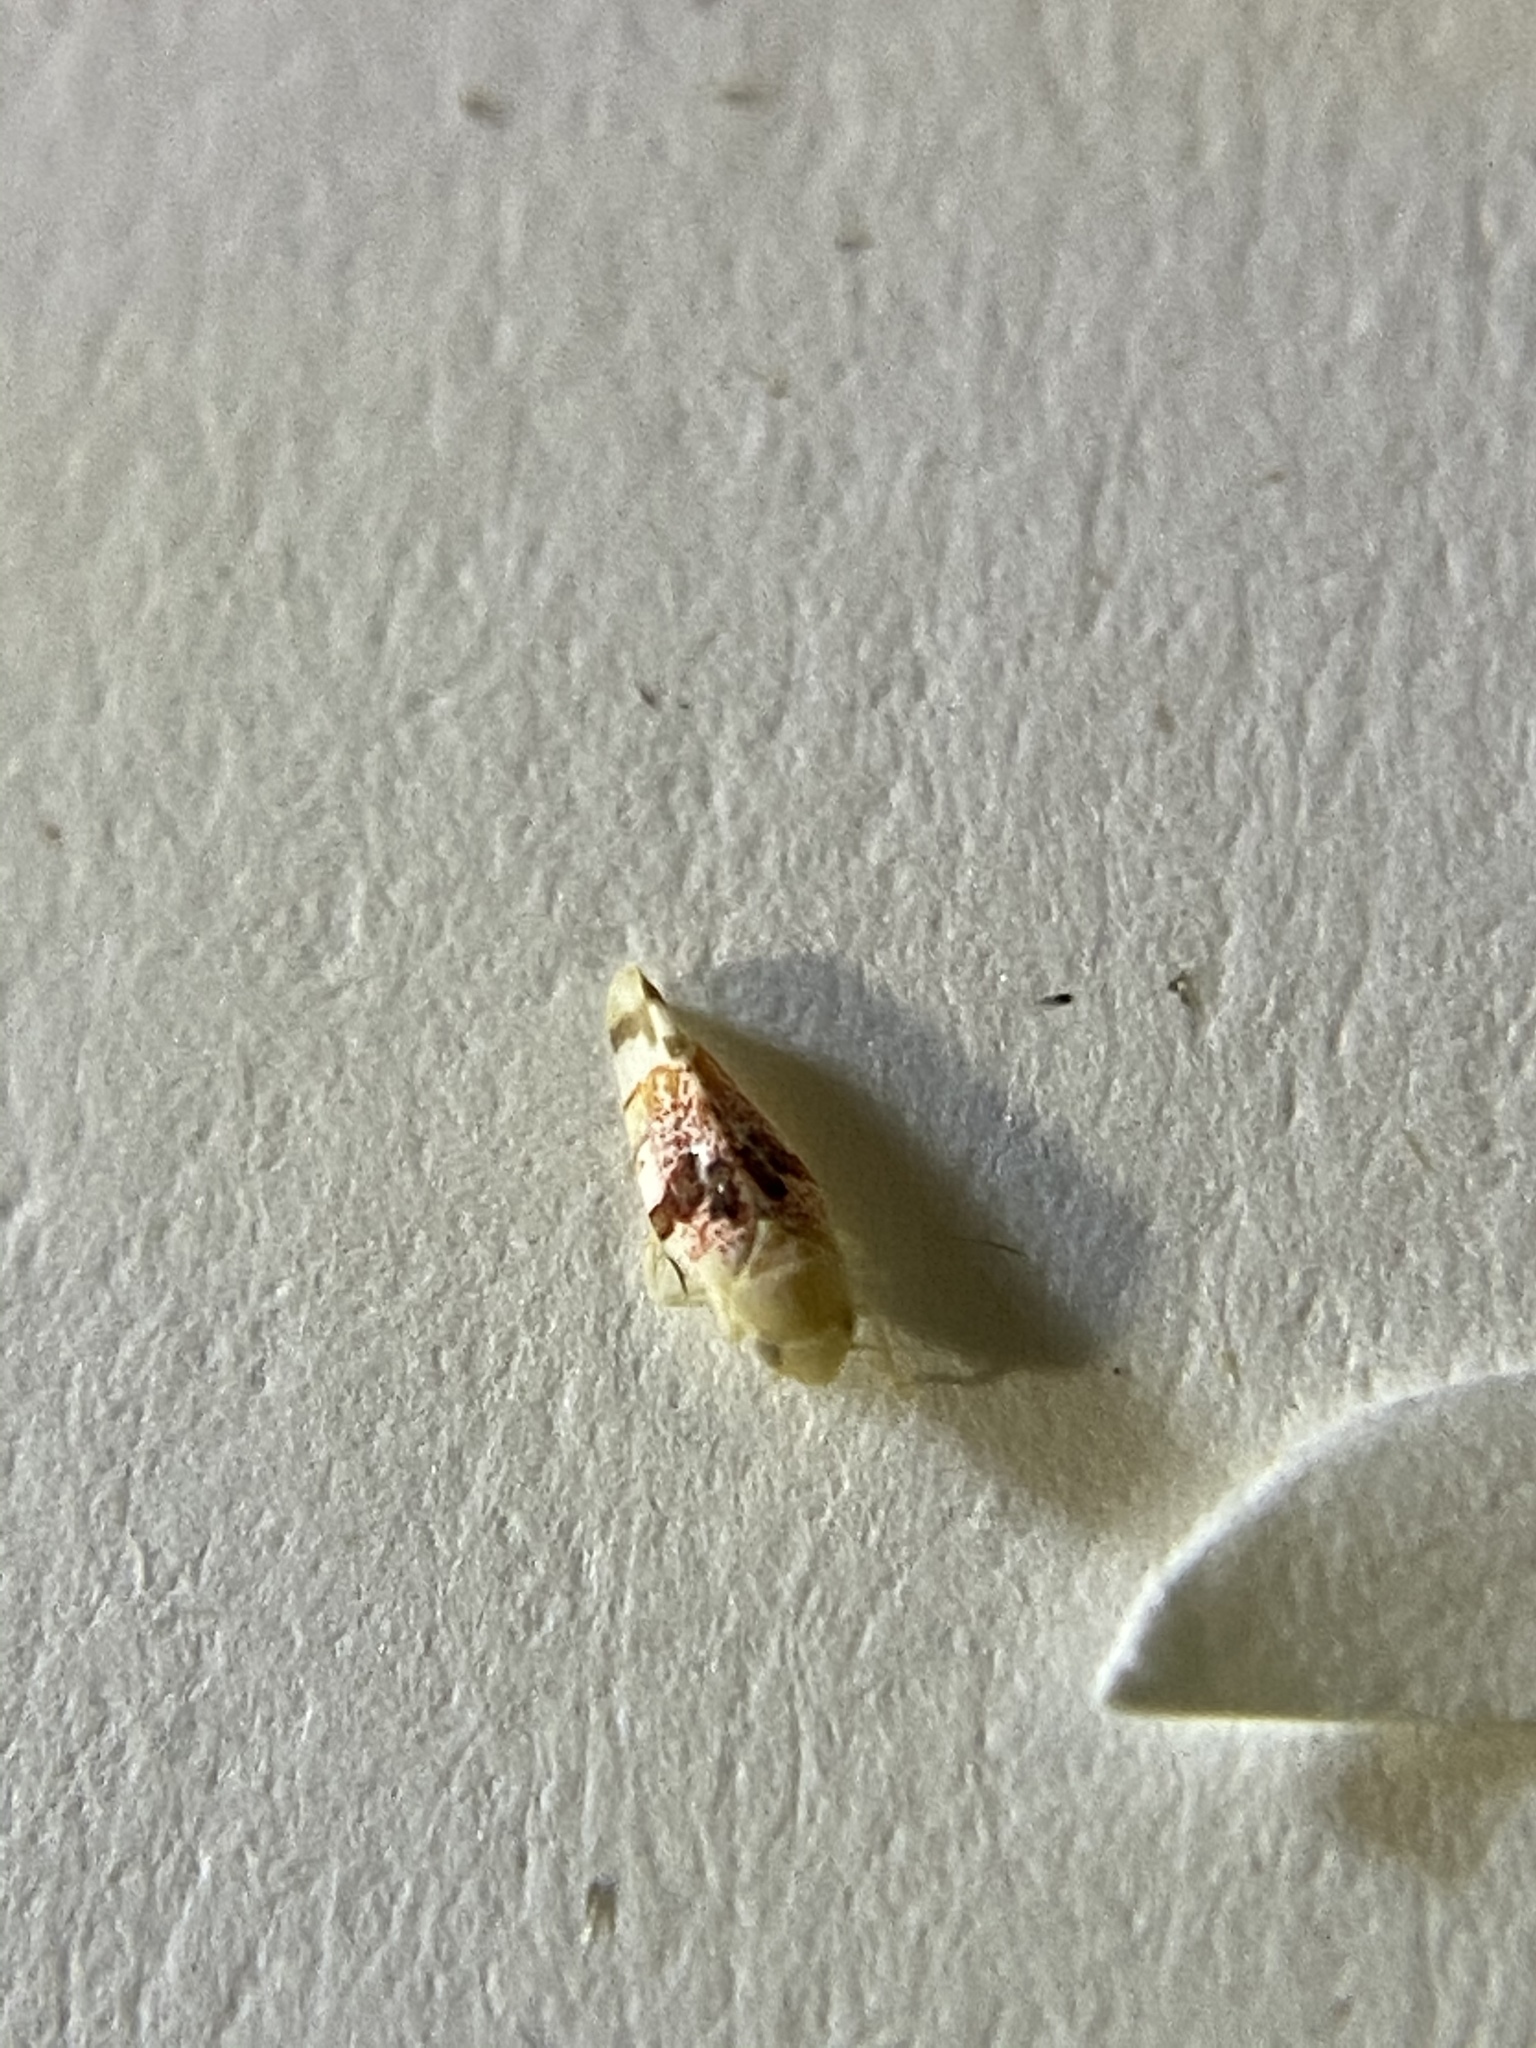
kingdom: Animalia
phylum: Arthropoda
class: Insecta
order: Hemiptera
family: Cicadellidae
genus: Hymetta
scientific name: Hymetta balteata
